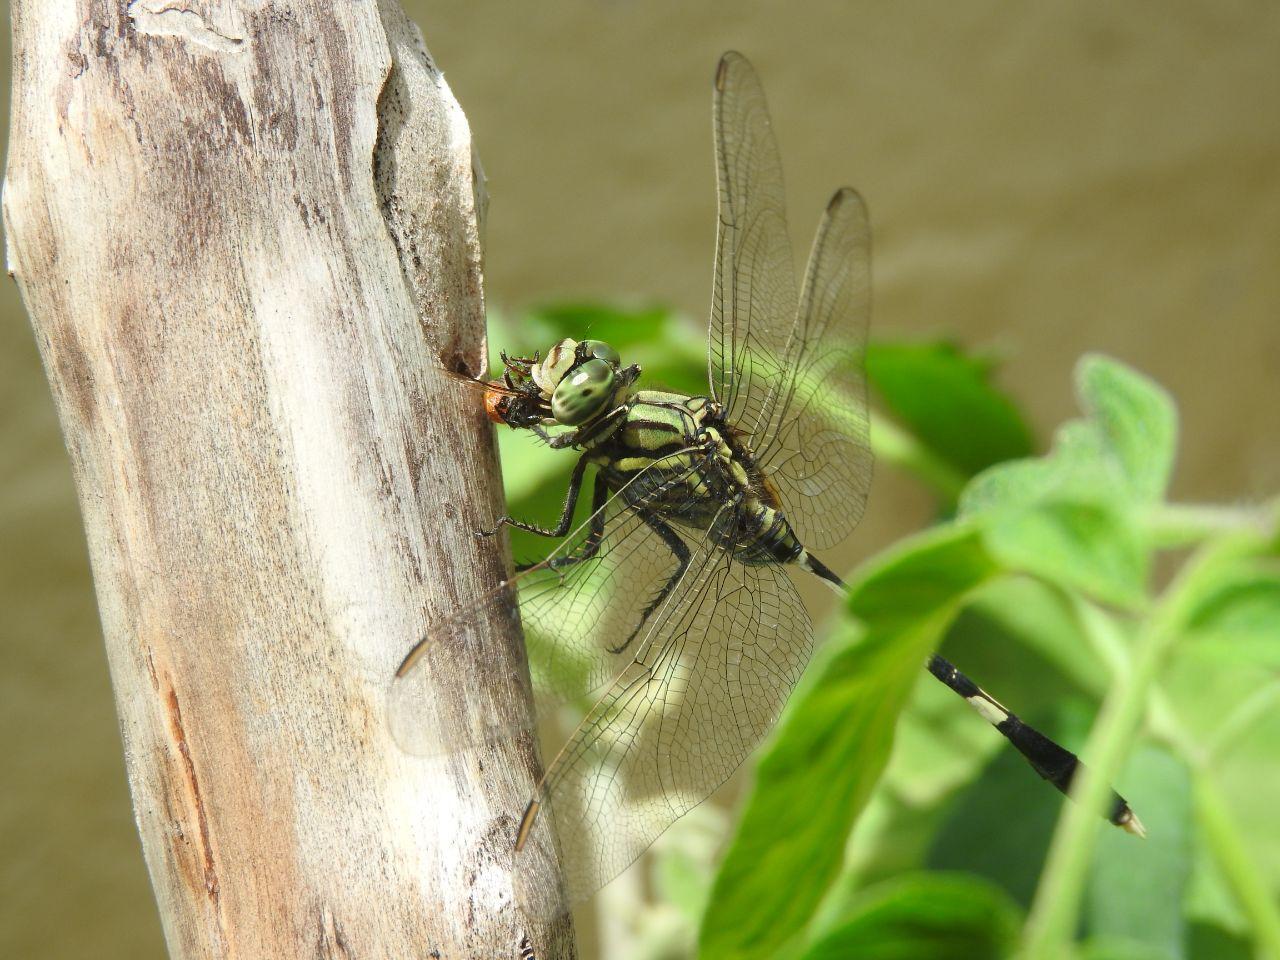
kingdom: Animalia
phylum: Arthropoda
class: Insecta
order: Odonata
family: Libellulidae
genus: Orthetrum
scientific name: Orthetrum sabina
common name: Slender skimmer
